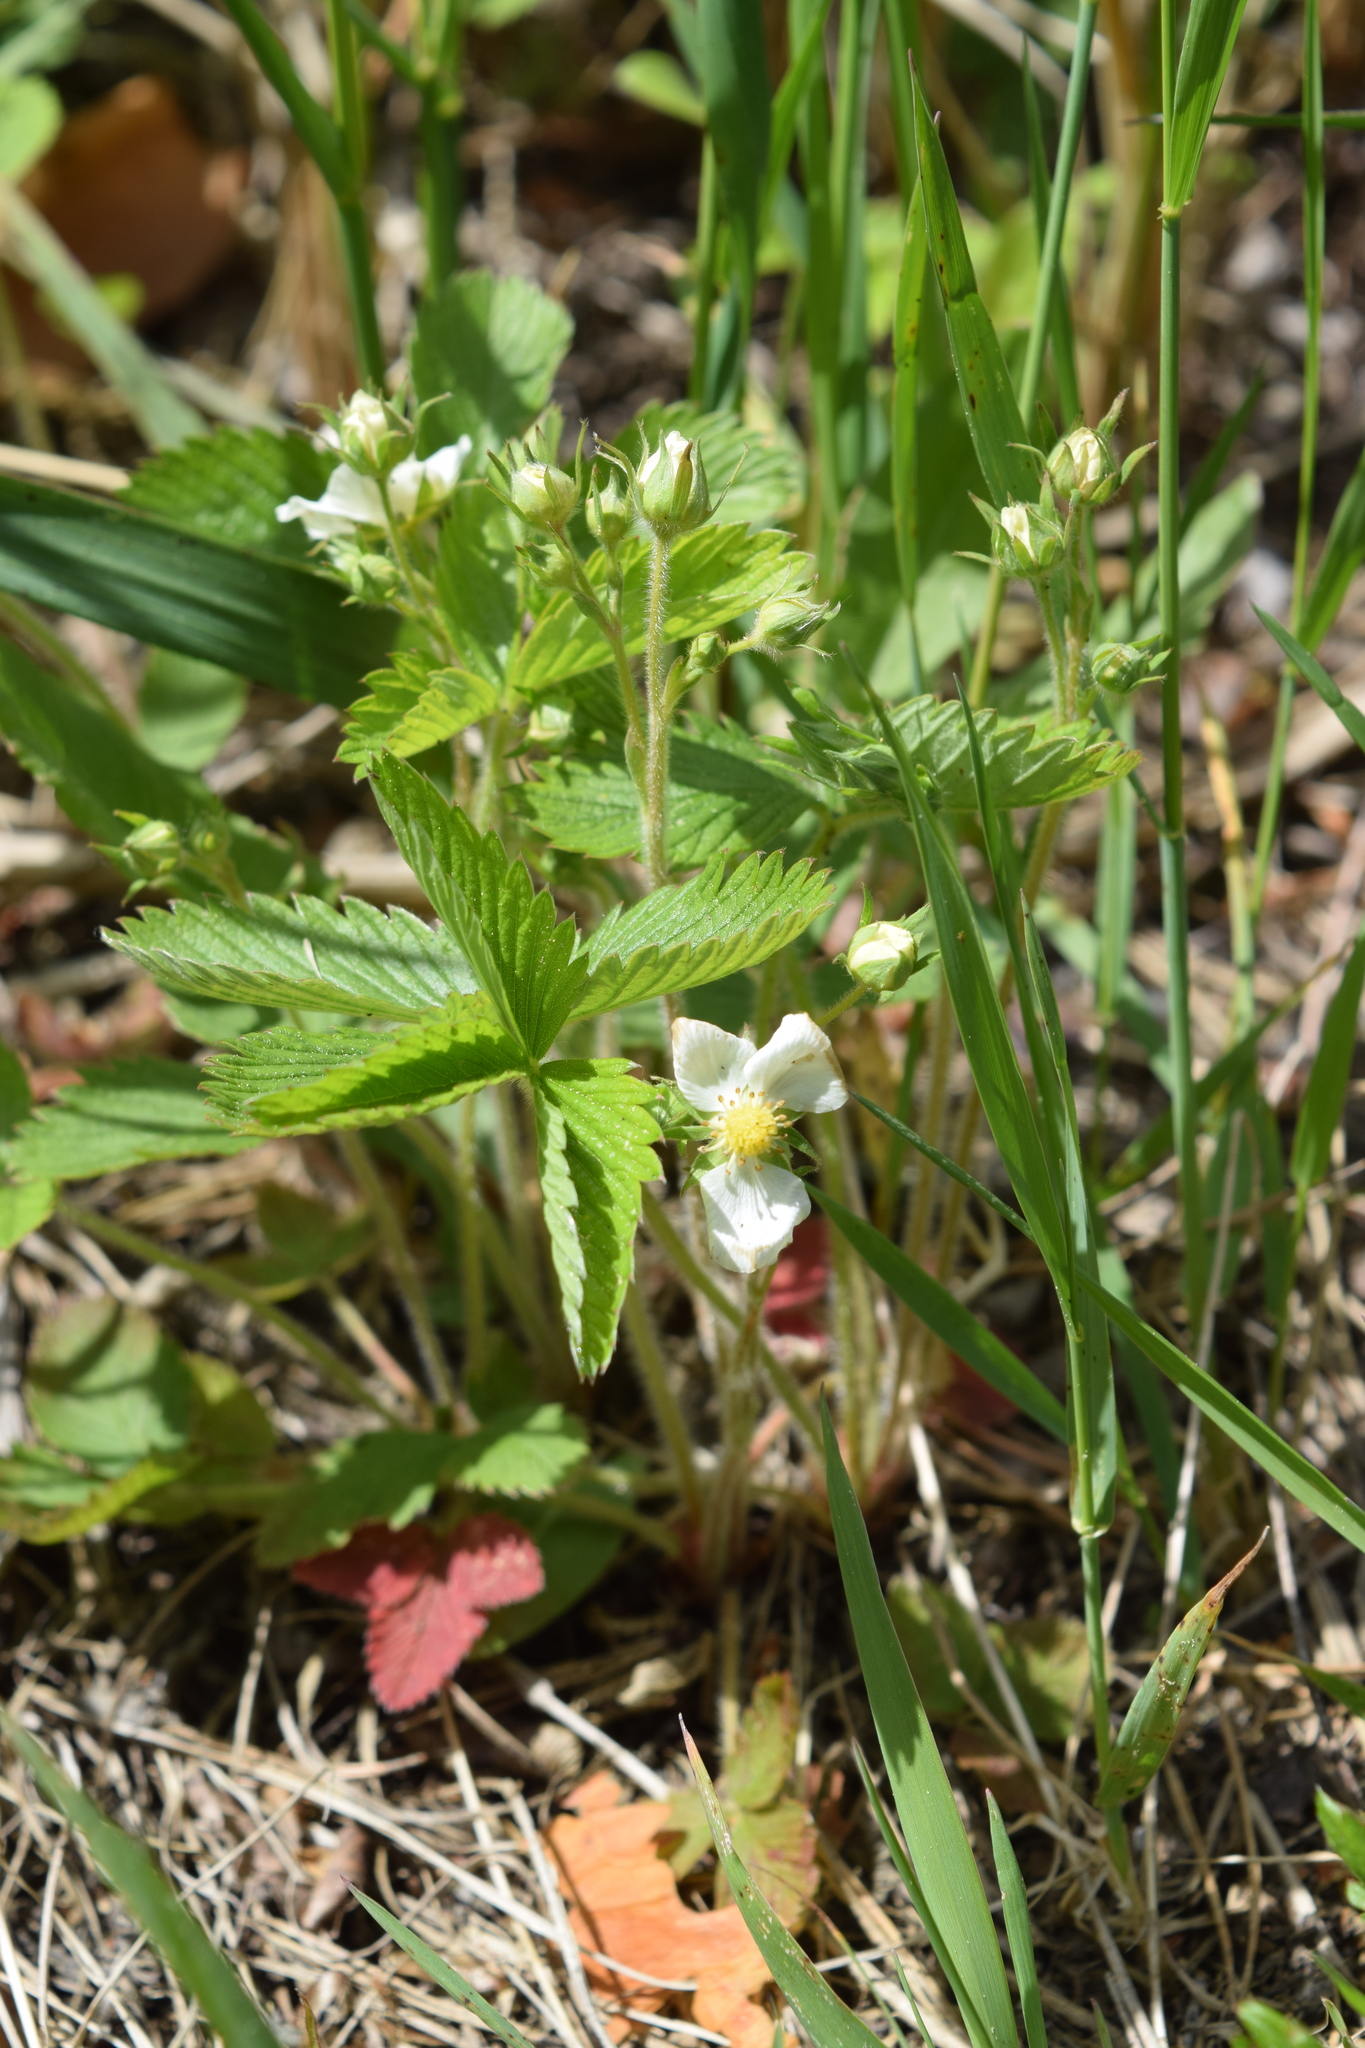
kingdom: Plantae
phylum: Tracheophyta
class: Magnoliopsida
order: Rosales
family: Rosaceae
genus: Fragaria
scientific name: Fragaria viridis
